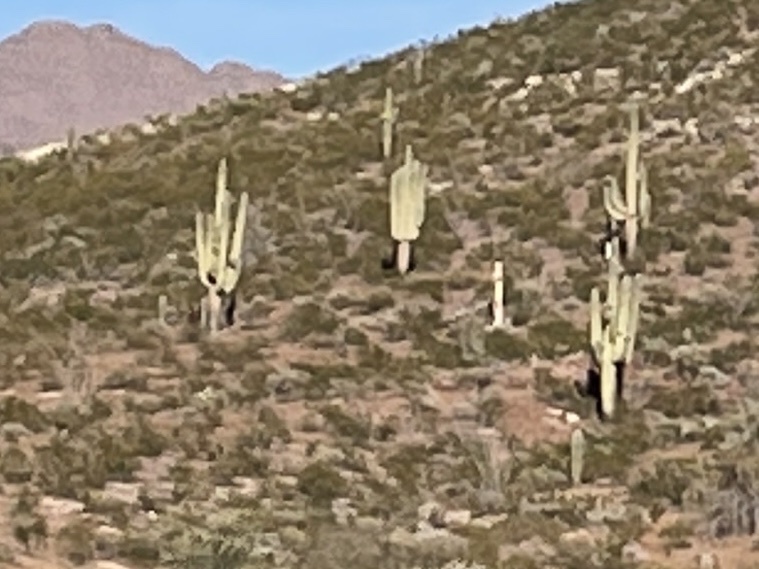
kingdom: Plantae
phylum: Tracheophyta
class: Magnoliopsida
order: Caryophyllales
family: Cactaceae
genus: Carnegiea
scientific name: Carnegiea gigantea
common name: Saguaro
